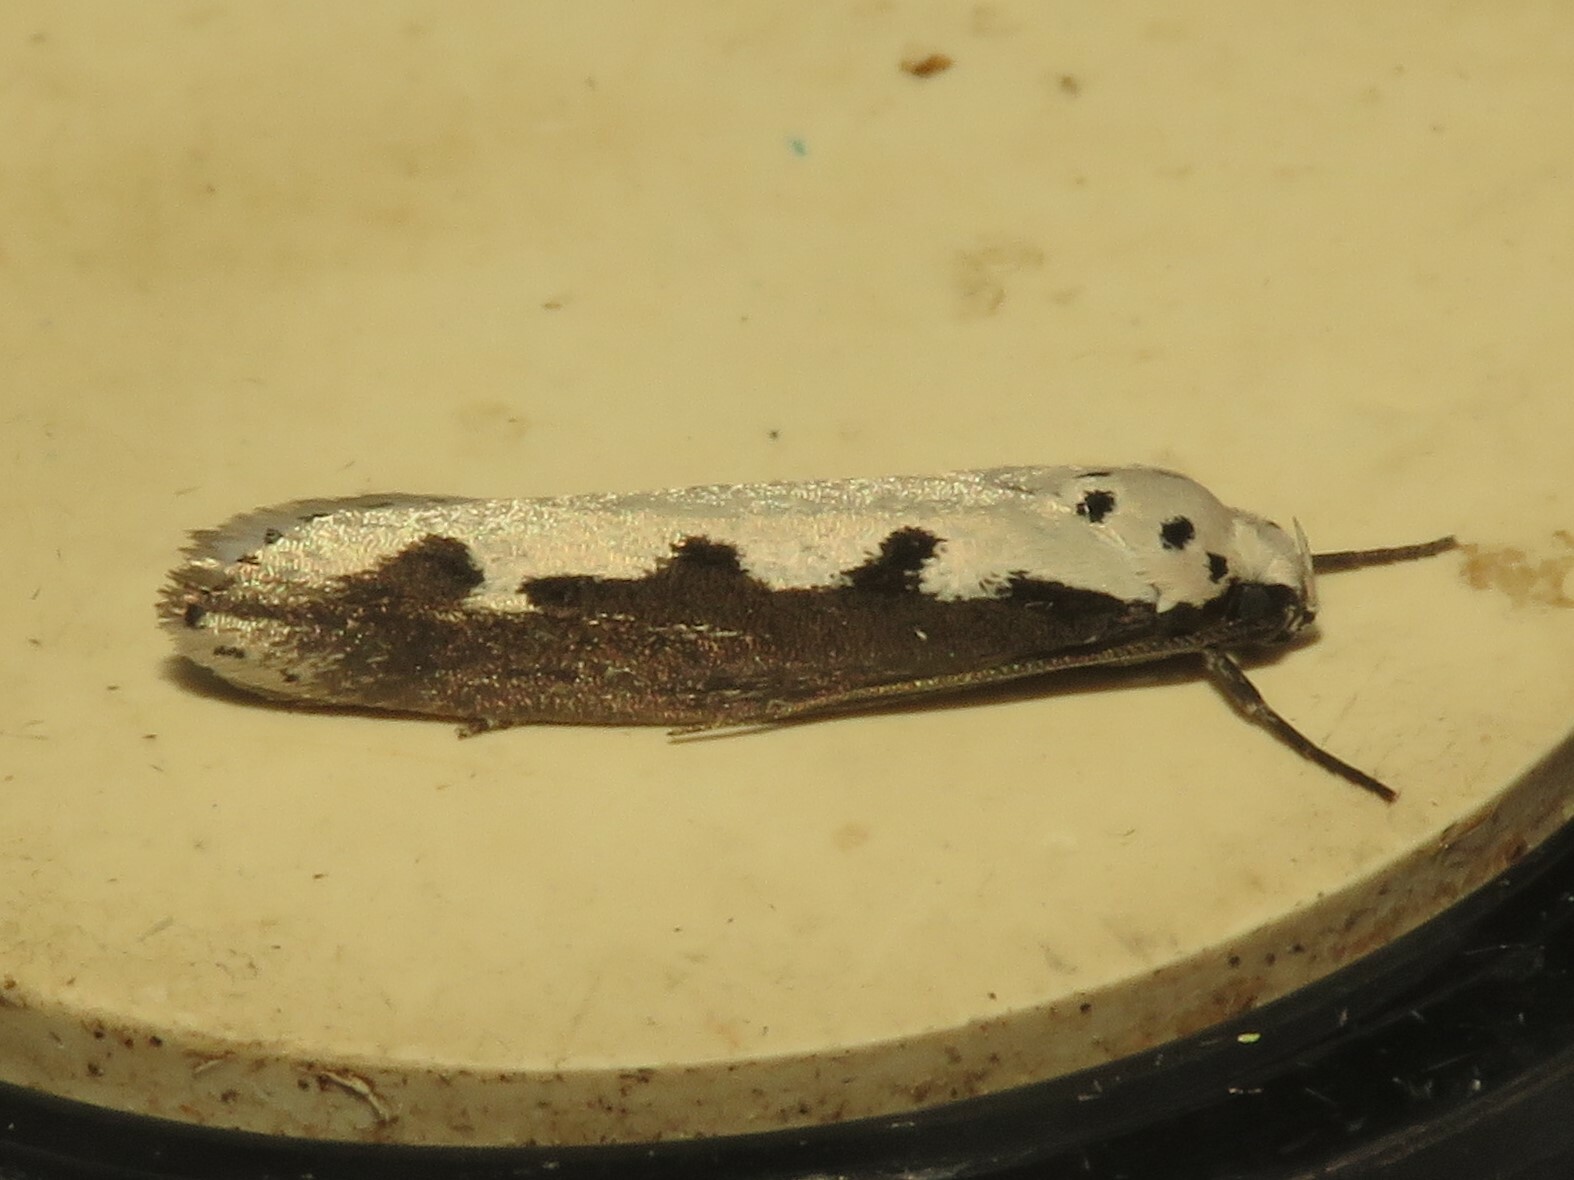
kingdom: Animalia
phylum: Arthropoda
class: Insecta
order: Lepidoptera
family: Ethmiidae
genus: Ethmia
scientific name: Ethmia bipunctella
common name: Bordered ermel
